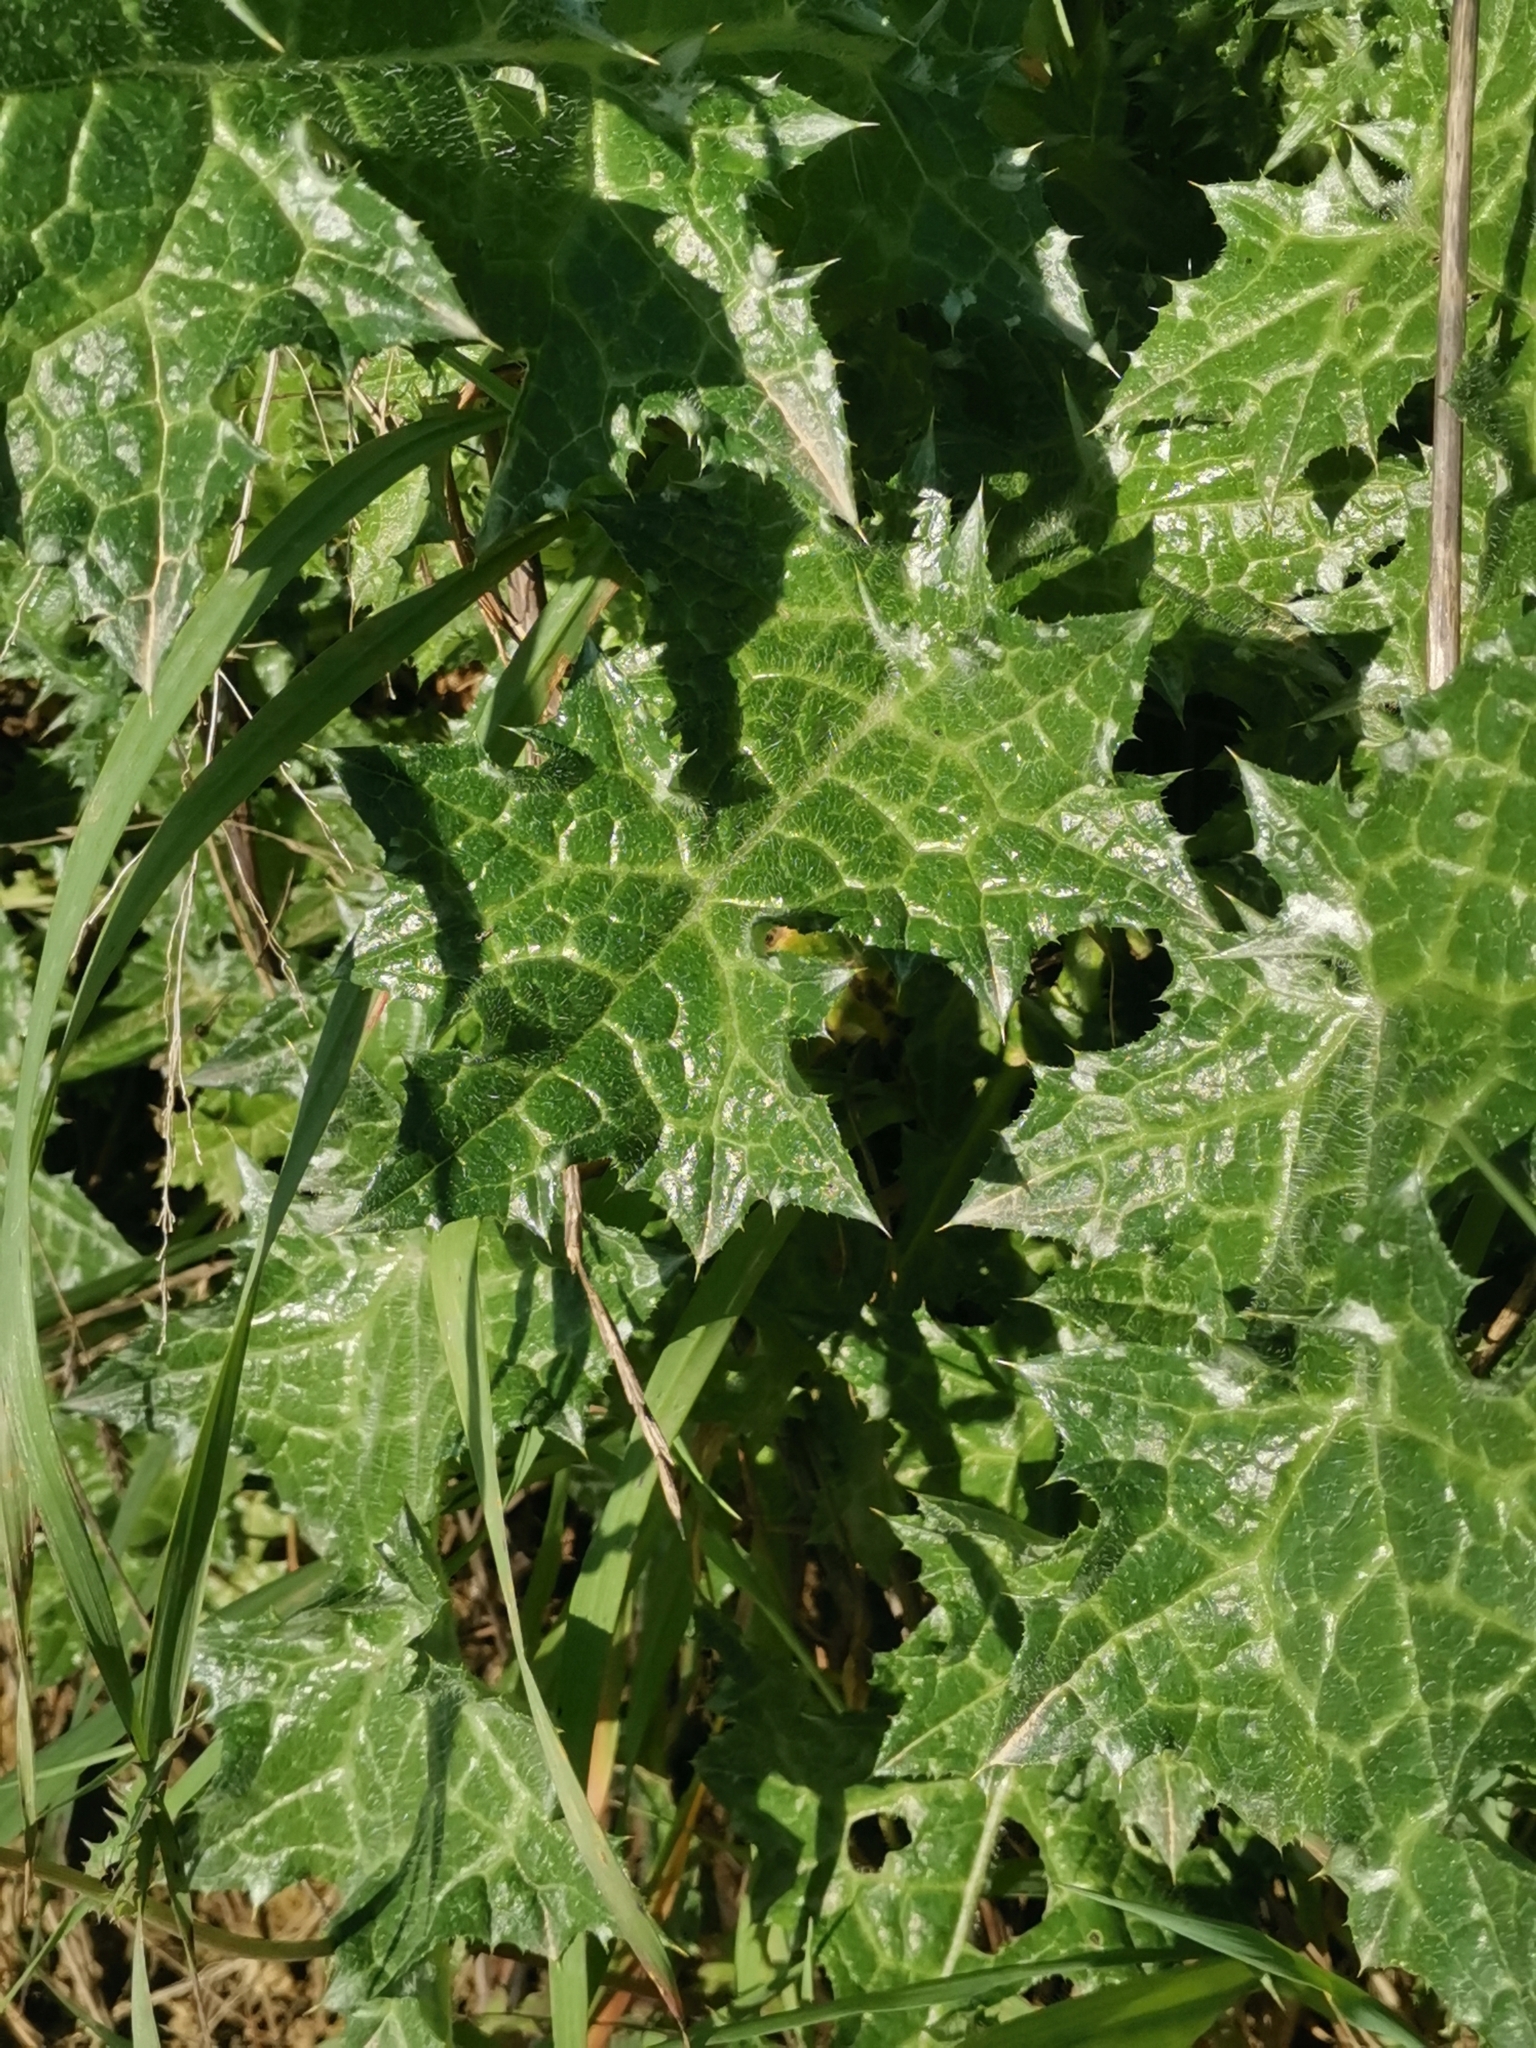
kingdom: Plantae
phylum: Tracheophyta
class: Magnoliopsida
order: Asterales
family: Asteraceae
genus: Carduus
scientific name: Carduus pycnocephalus
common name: Plymouth thistle
